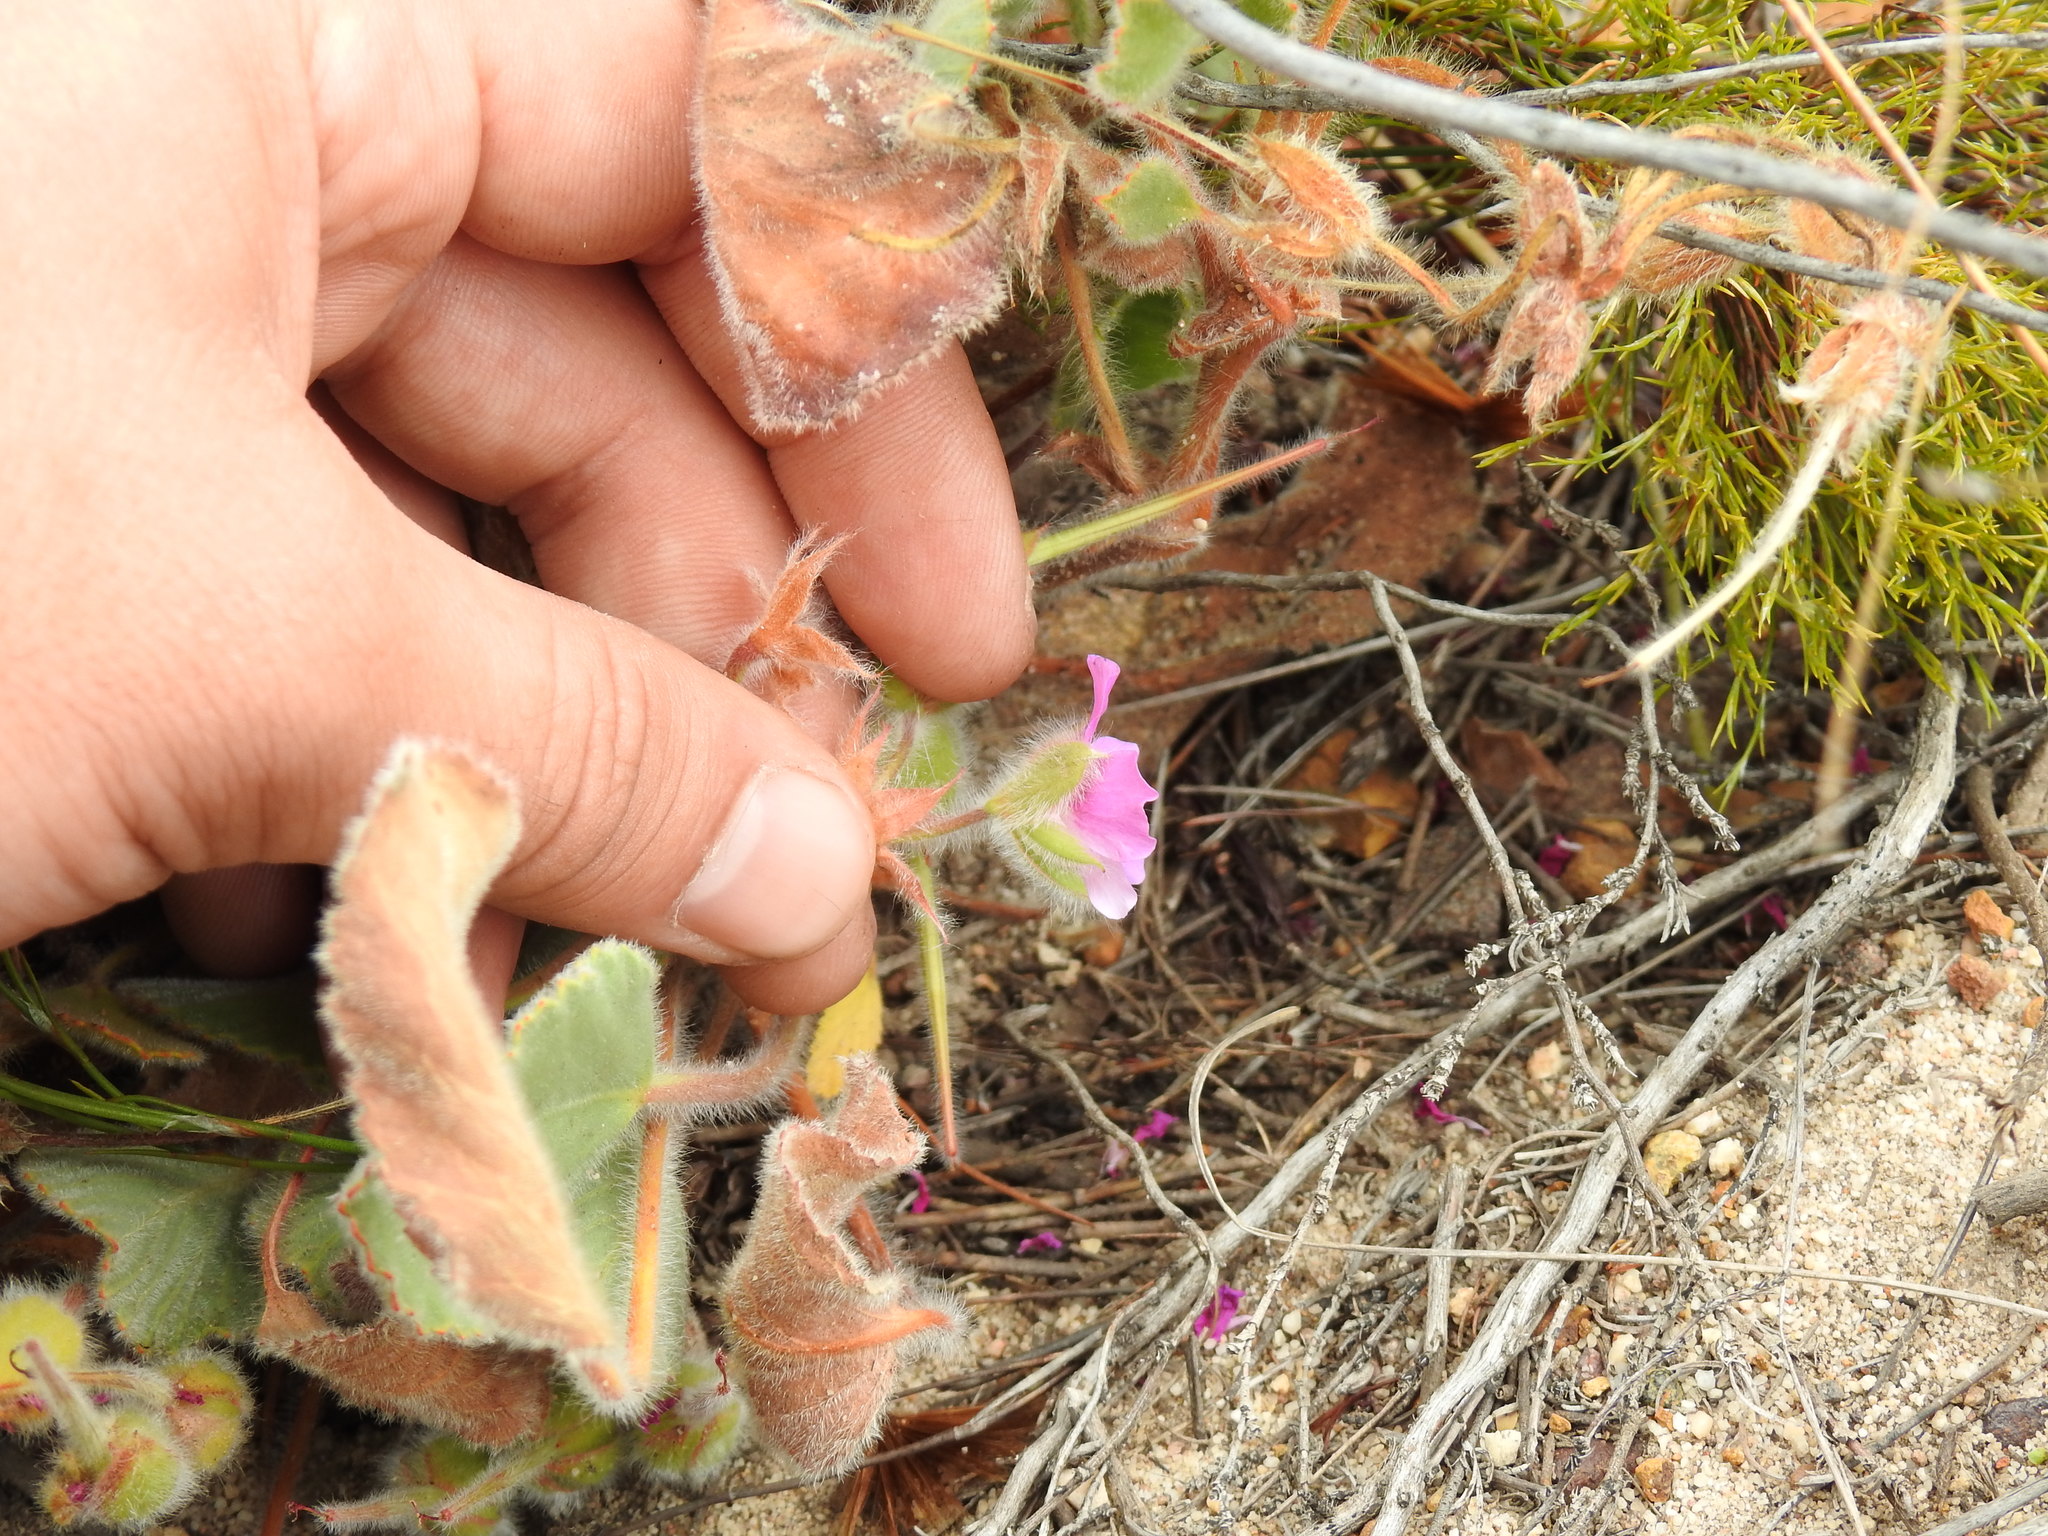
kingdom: Plantae
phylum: Tracheophyta
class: Magnoliopsida
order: Geraniales
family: Geraniaceae
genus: Pelargonium
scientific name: Pelargonium ovale
